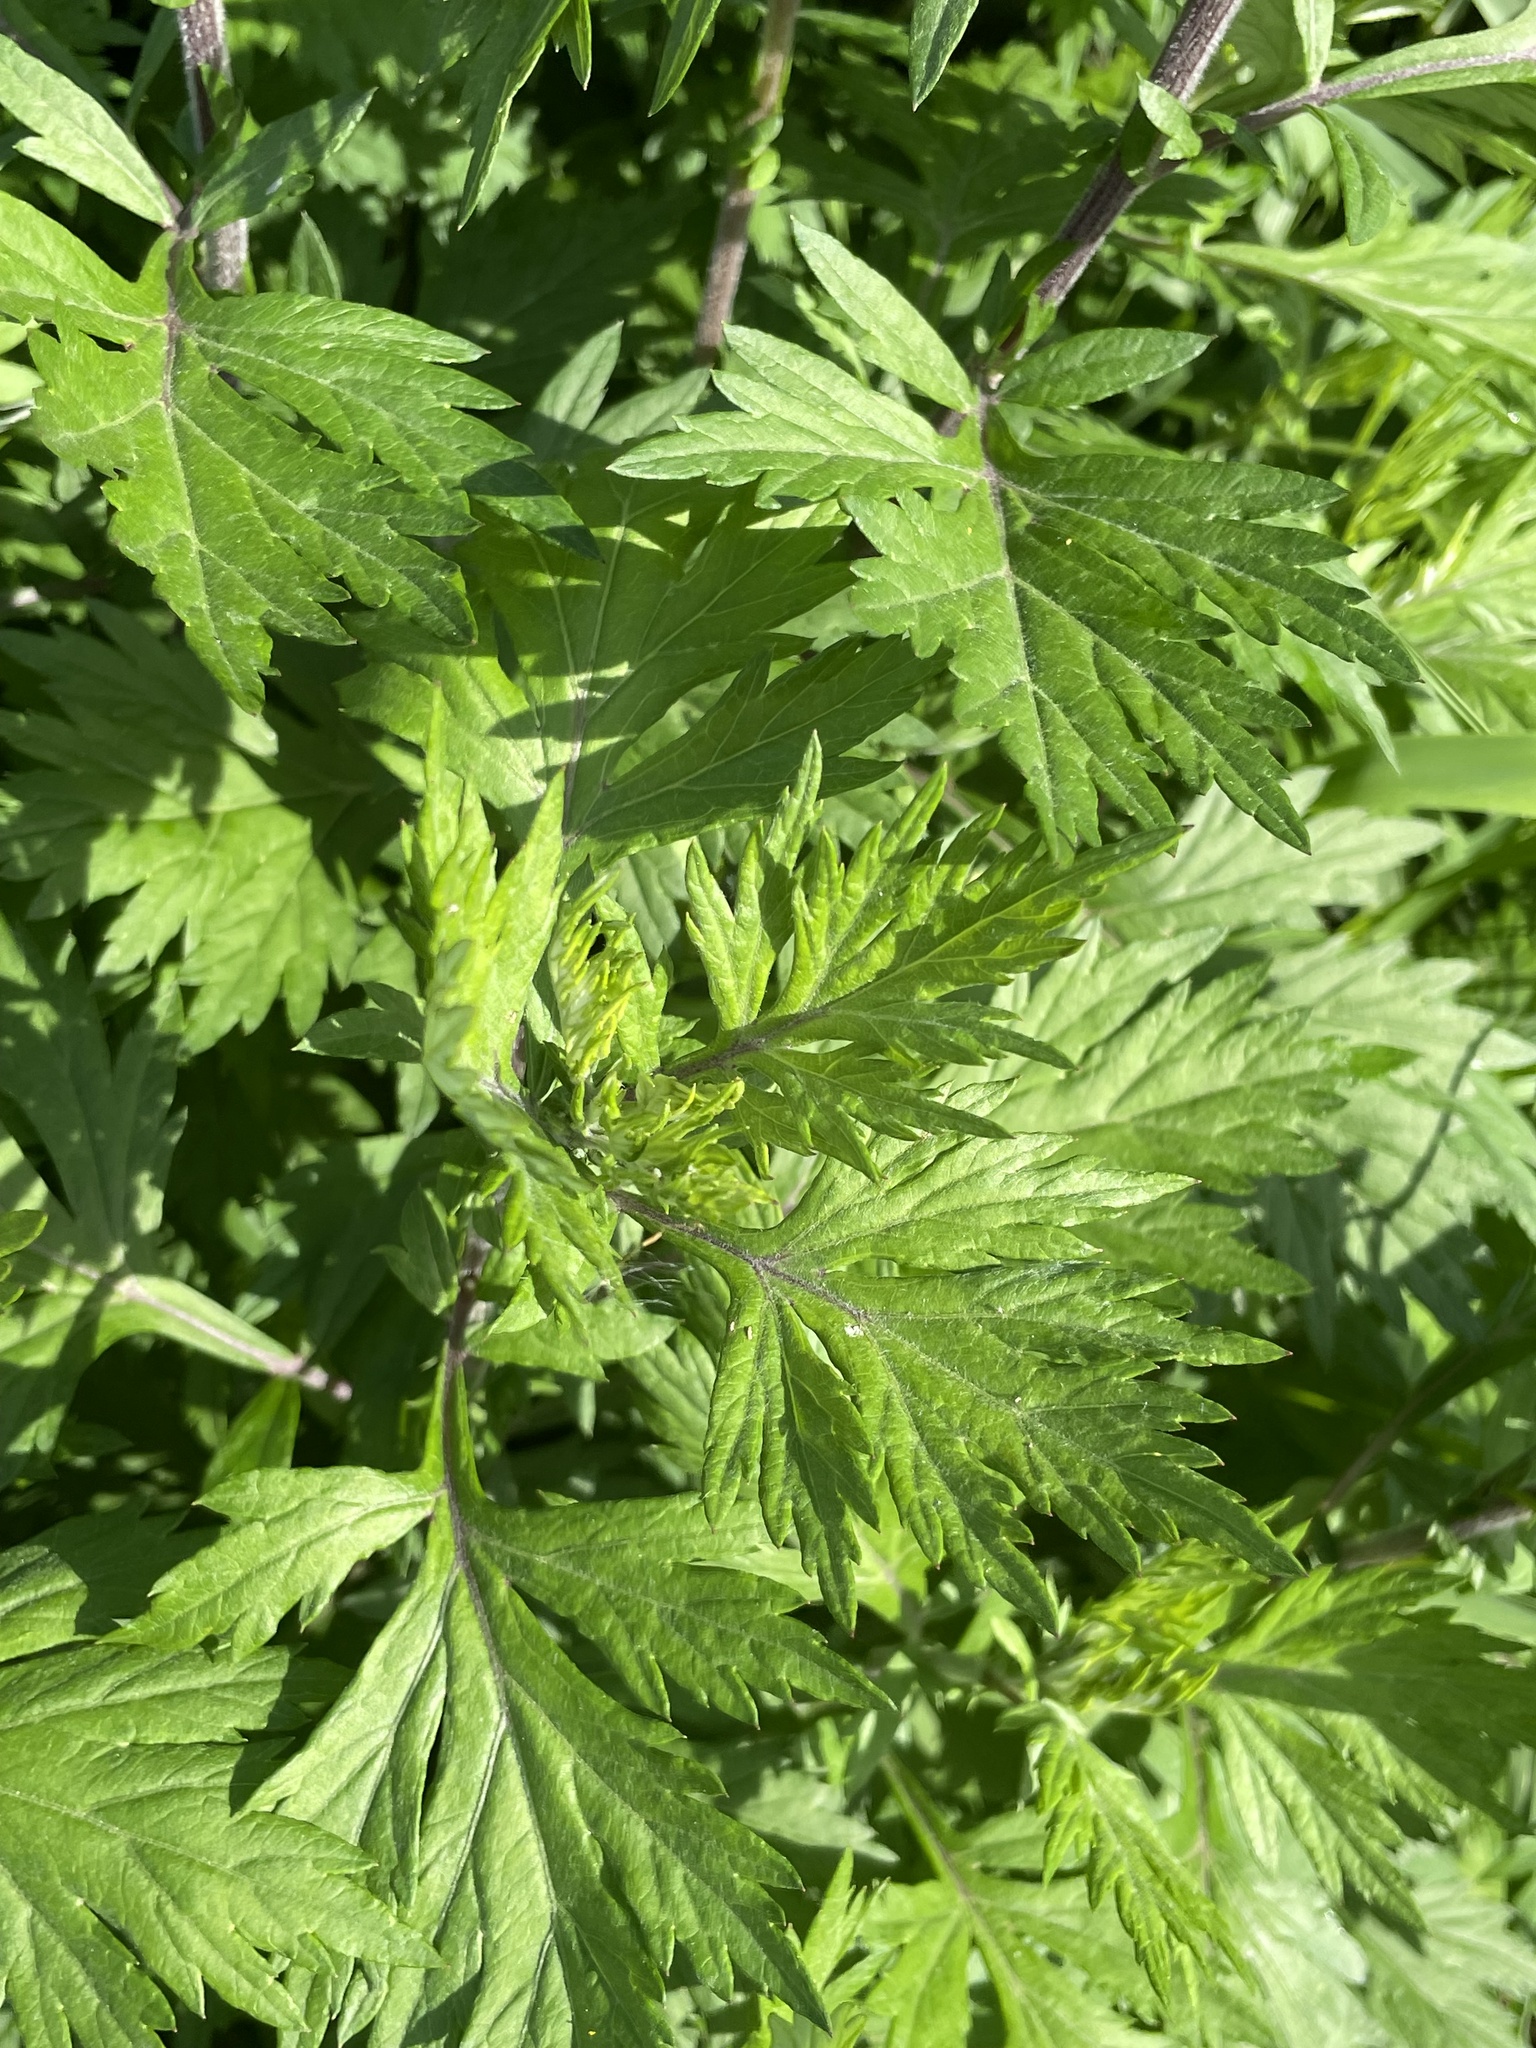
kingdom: Plantae
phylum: Tracheophyta
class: Magnoliopsida
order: Asterales
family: Asteraceae
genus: Artemisia
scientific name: Artemisia vulgaris
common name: Mugwort
